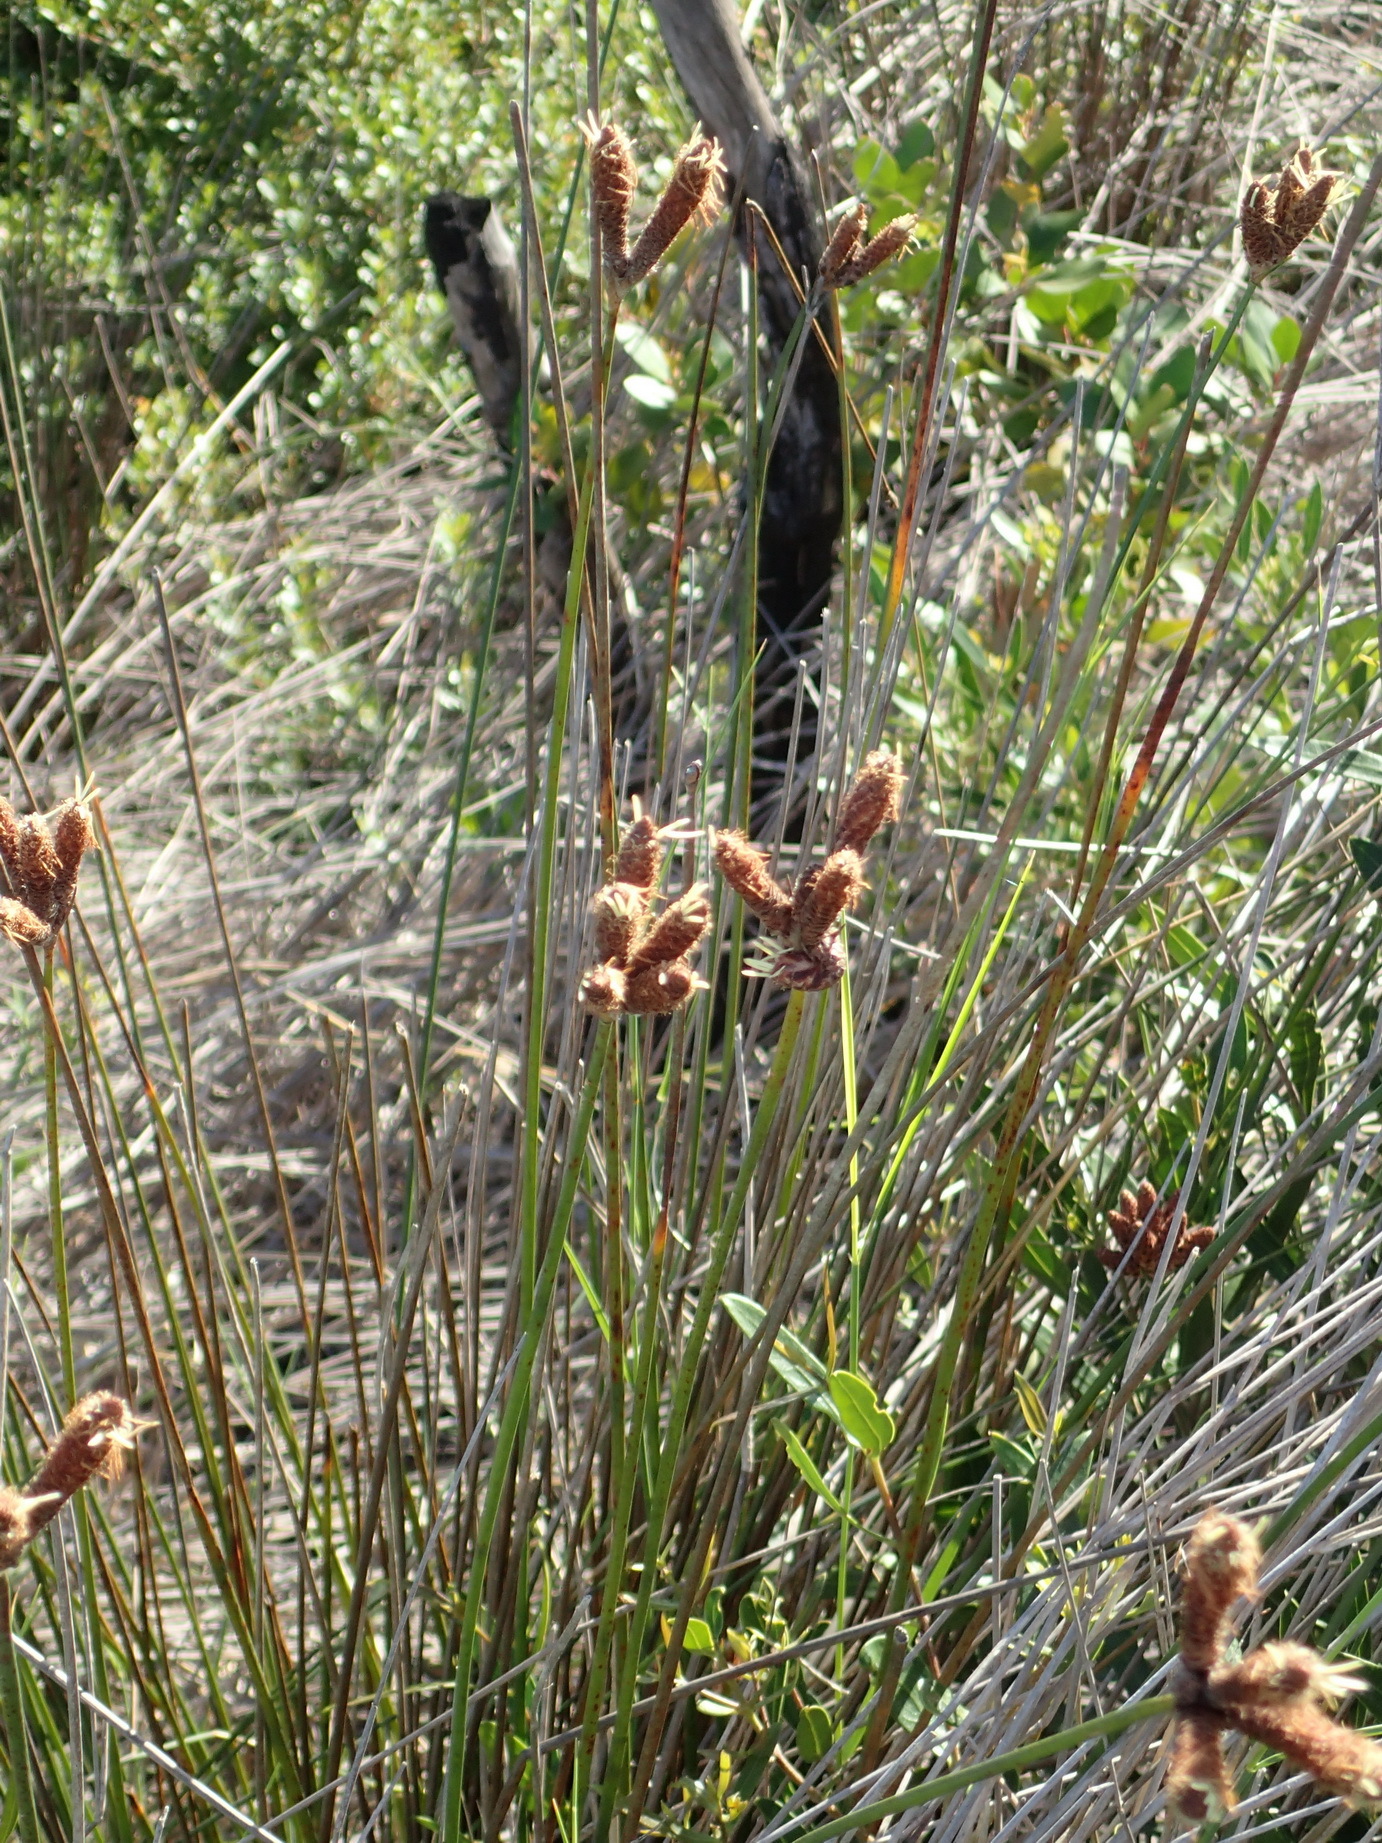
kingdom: Plantae
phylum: Tracheophyta
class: Liliopsida
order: Poales
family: Cyperaceae
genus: Hellmuthia
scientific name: Hellmuthia membranacea
